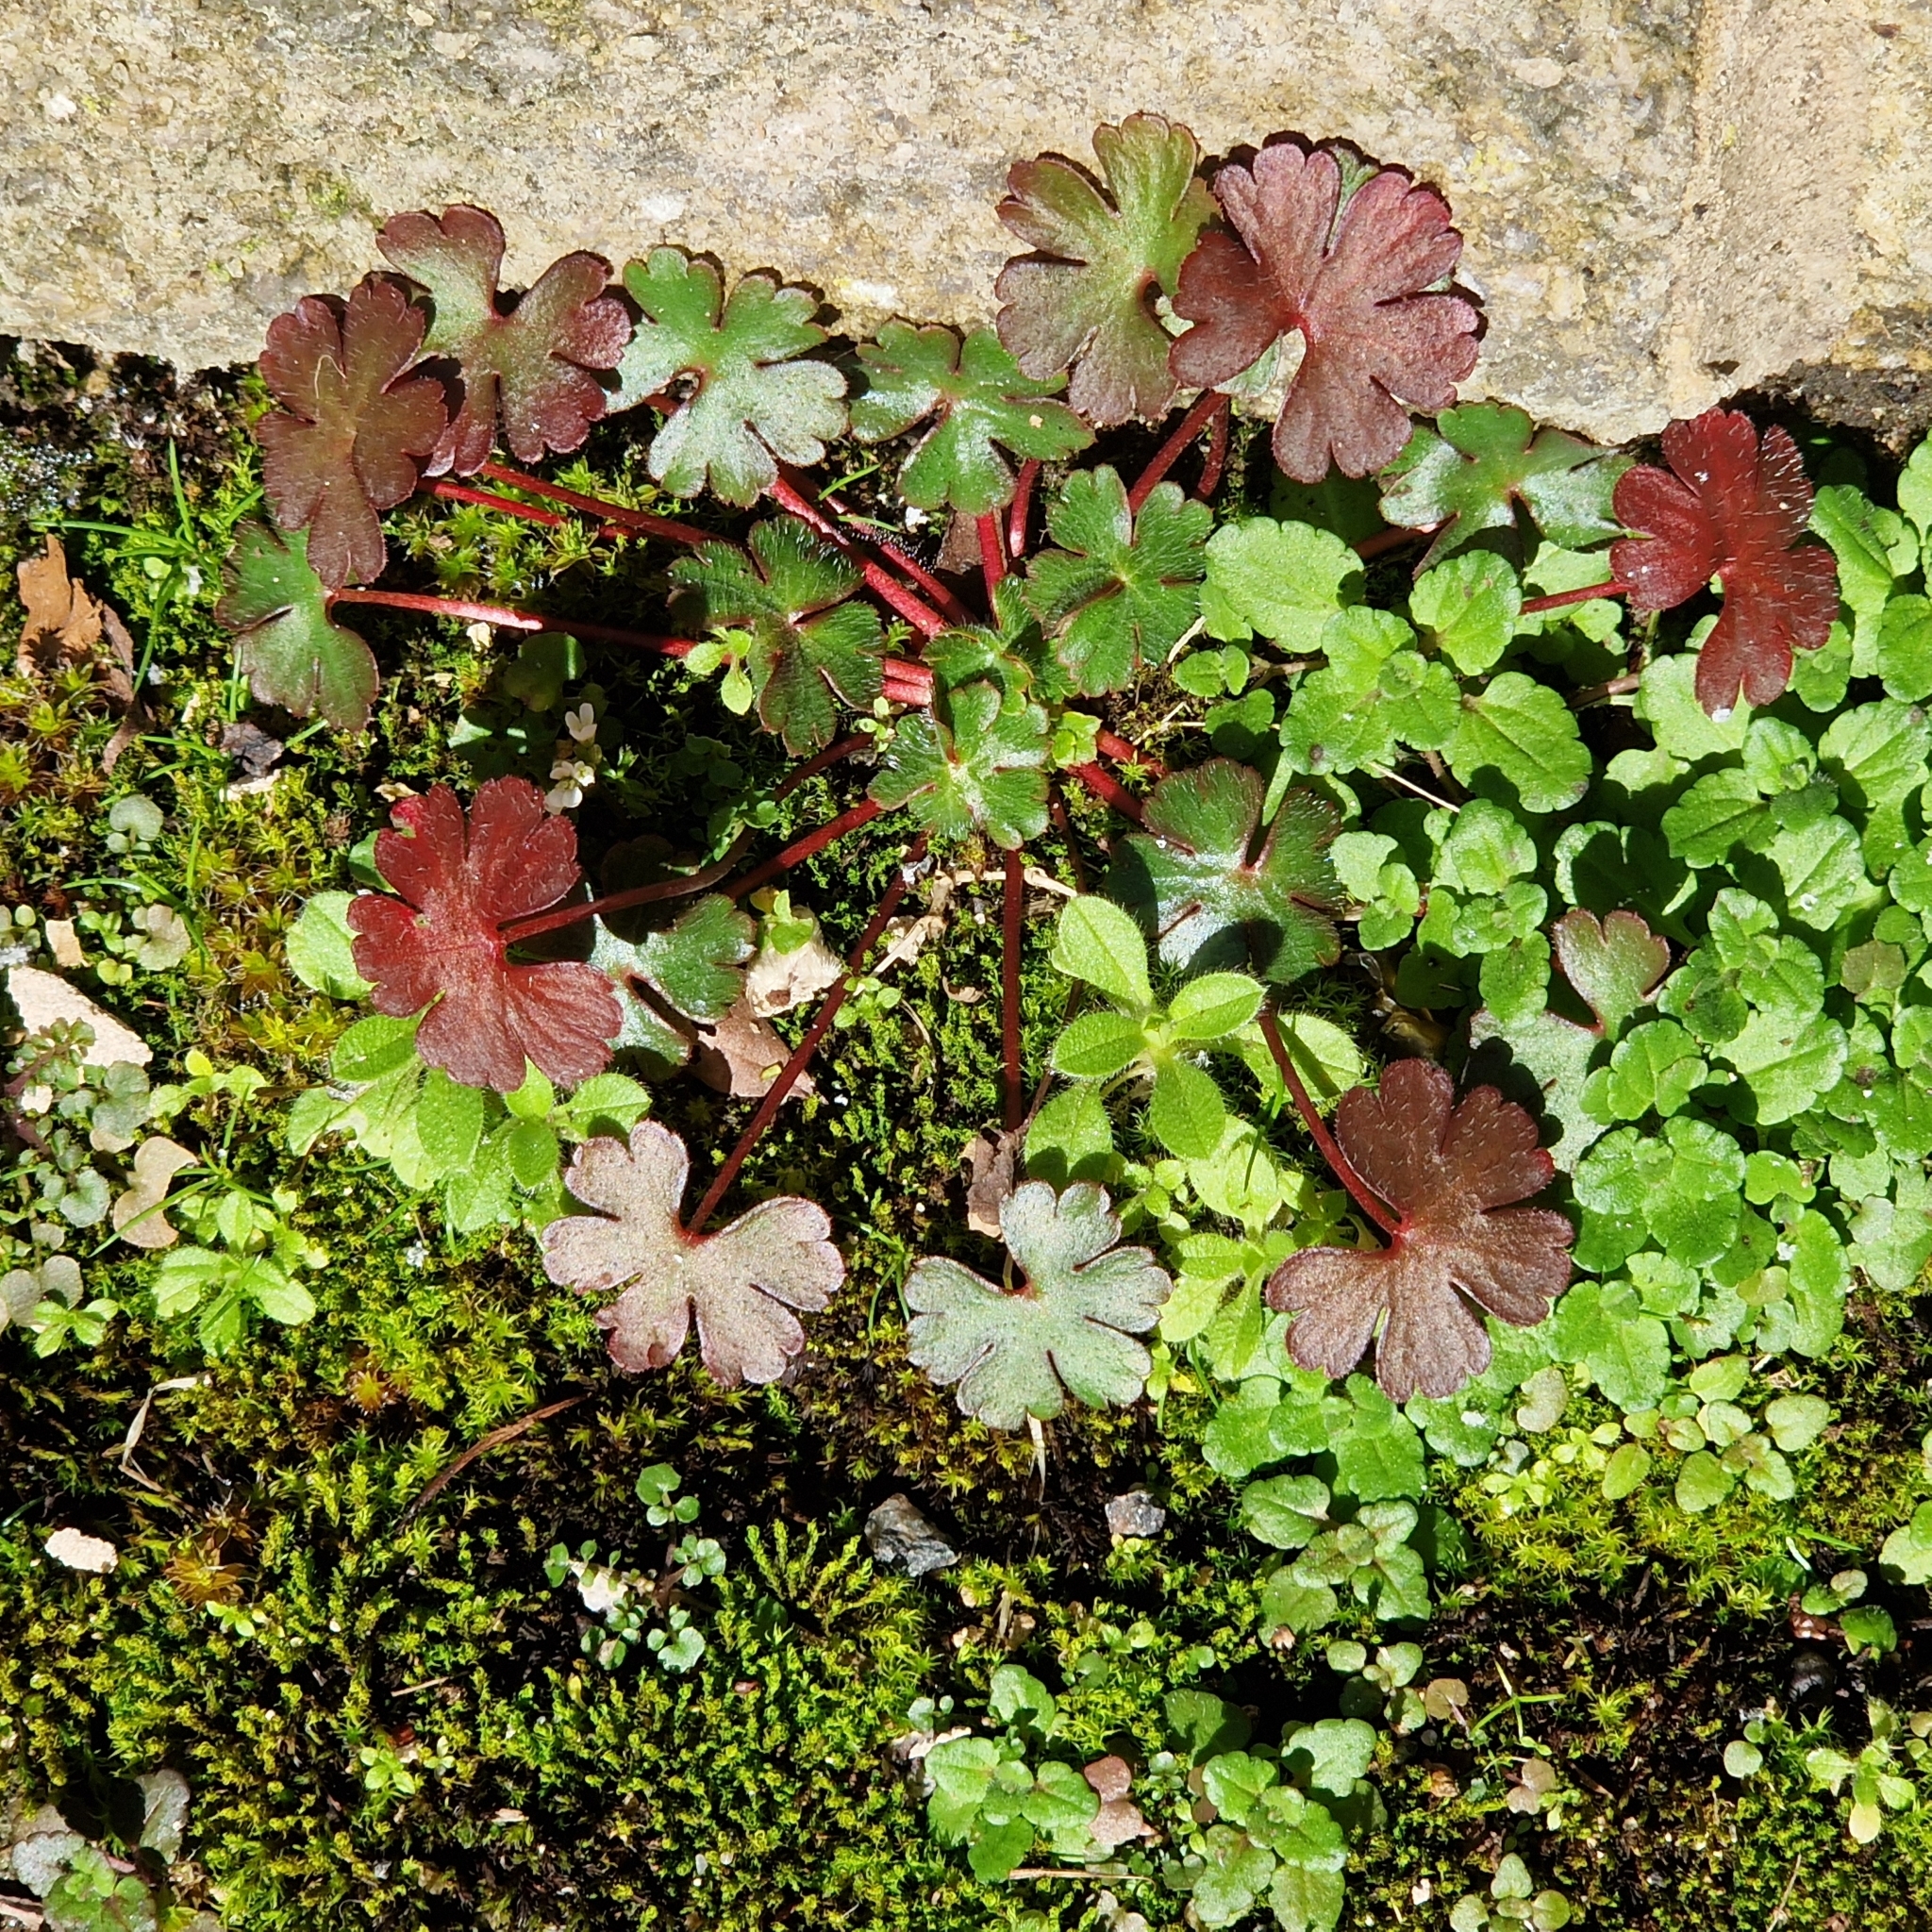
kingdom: Plantae
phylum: Tracheophyta
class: Magnoliopsida
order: Geraniales
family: Geraniaceae
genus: Geranium
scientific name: Geranium lucidum
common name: Shining crane's-bill
